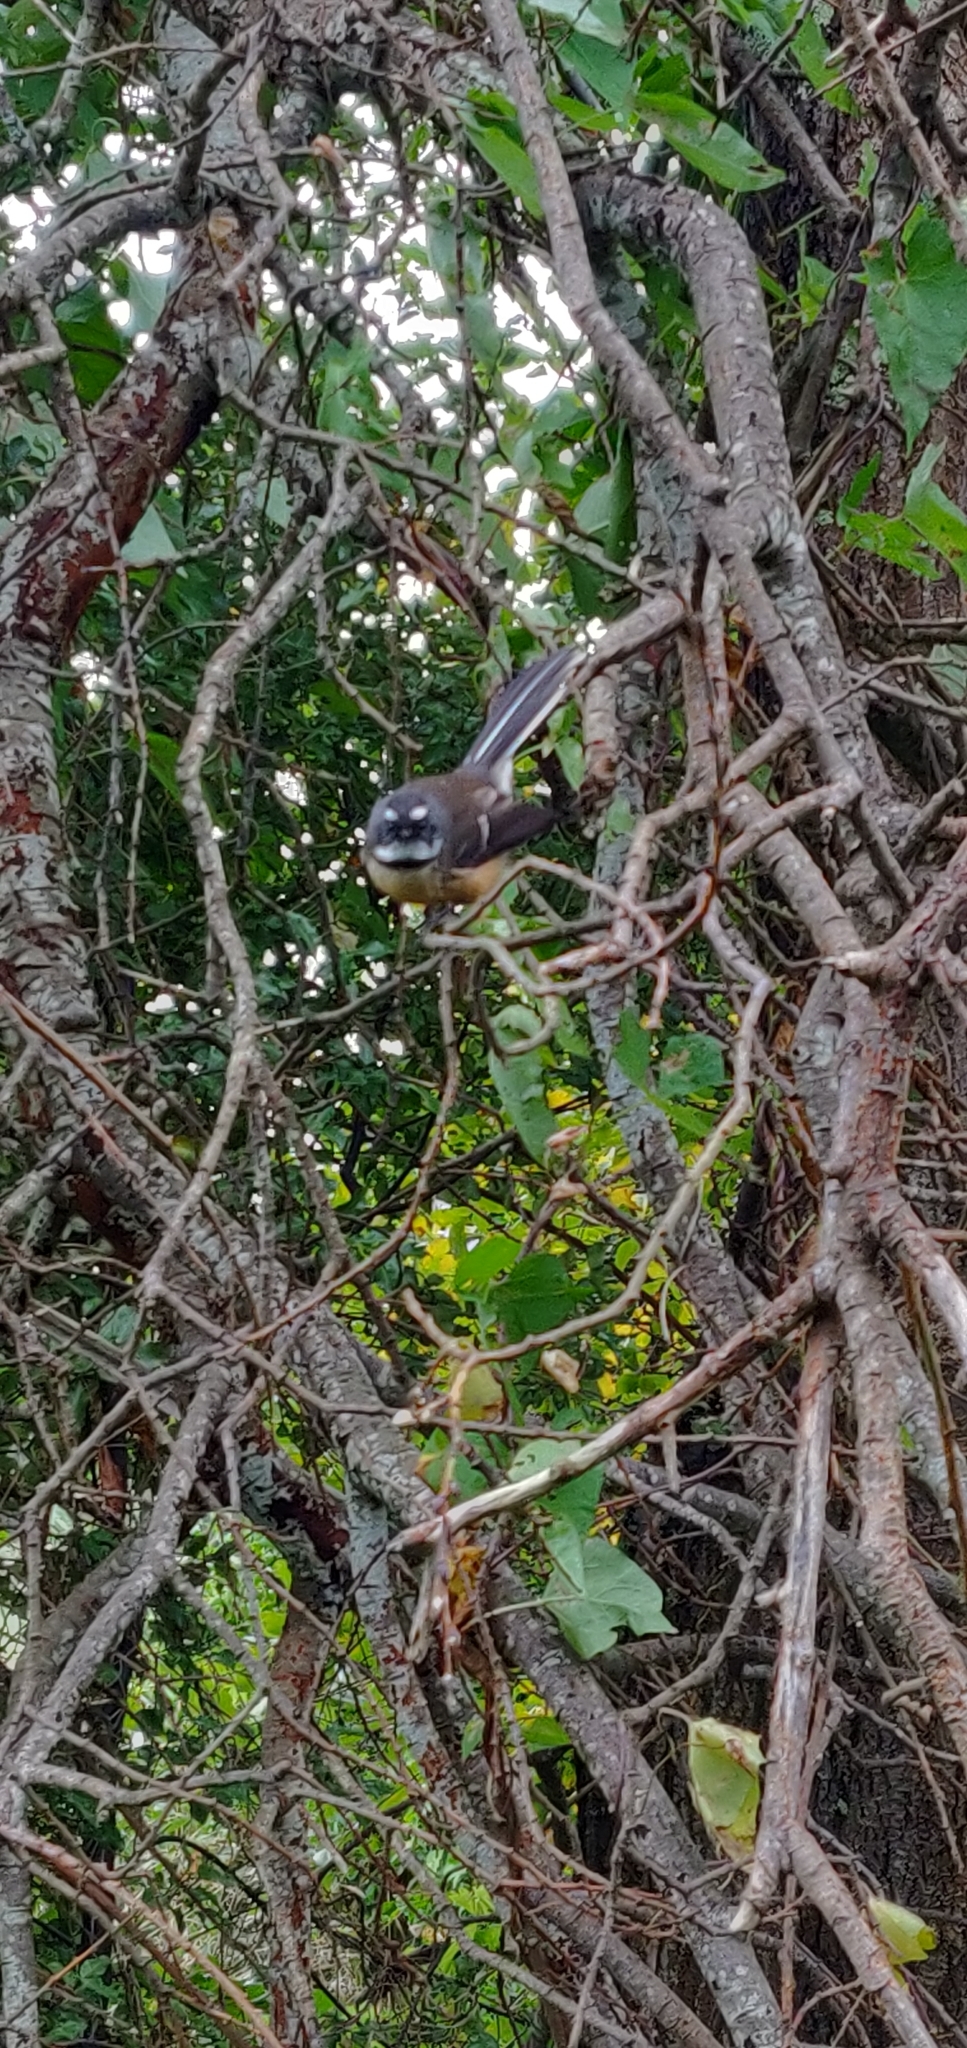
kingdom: Animalia
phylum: Chordata
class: Aves
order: Passeriformes
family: Rhipiduridae
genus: Rhipidura
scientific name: Rhipidura fuliginosa
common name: New zealand fantail
